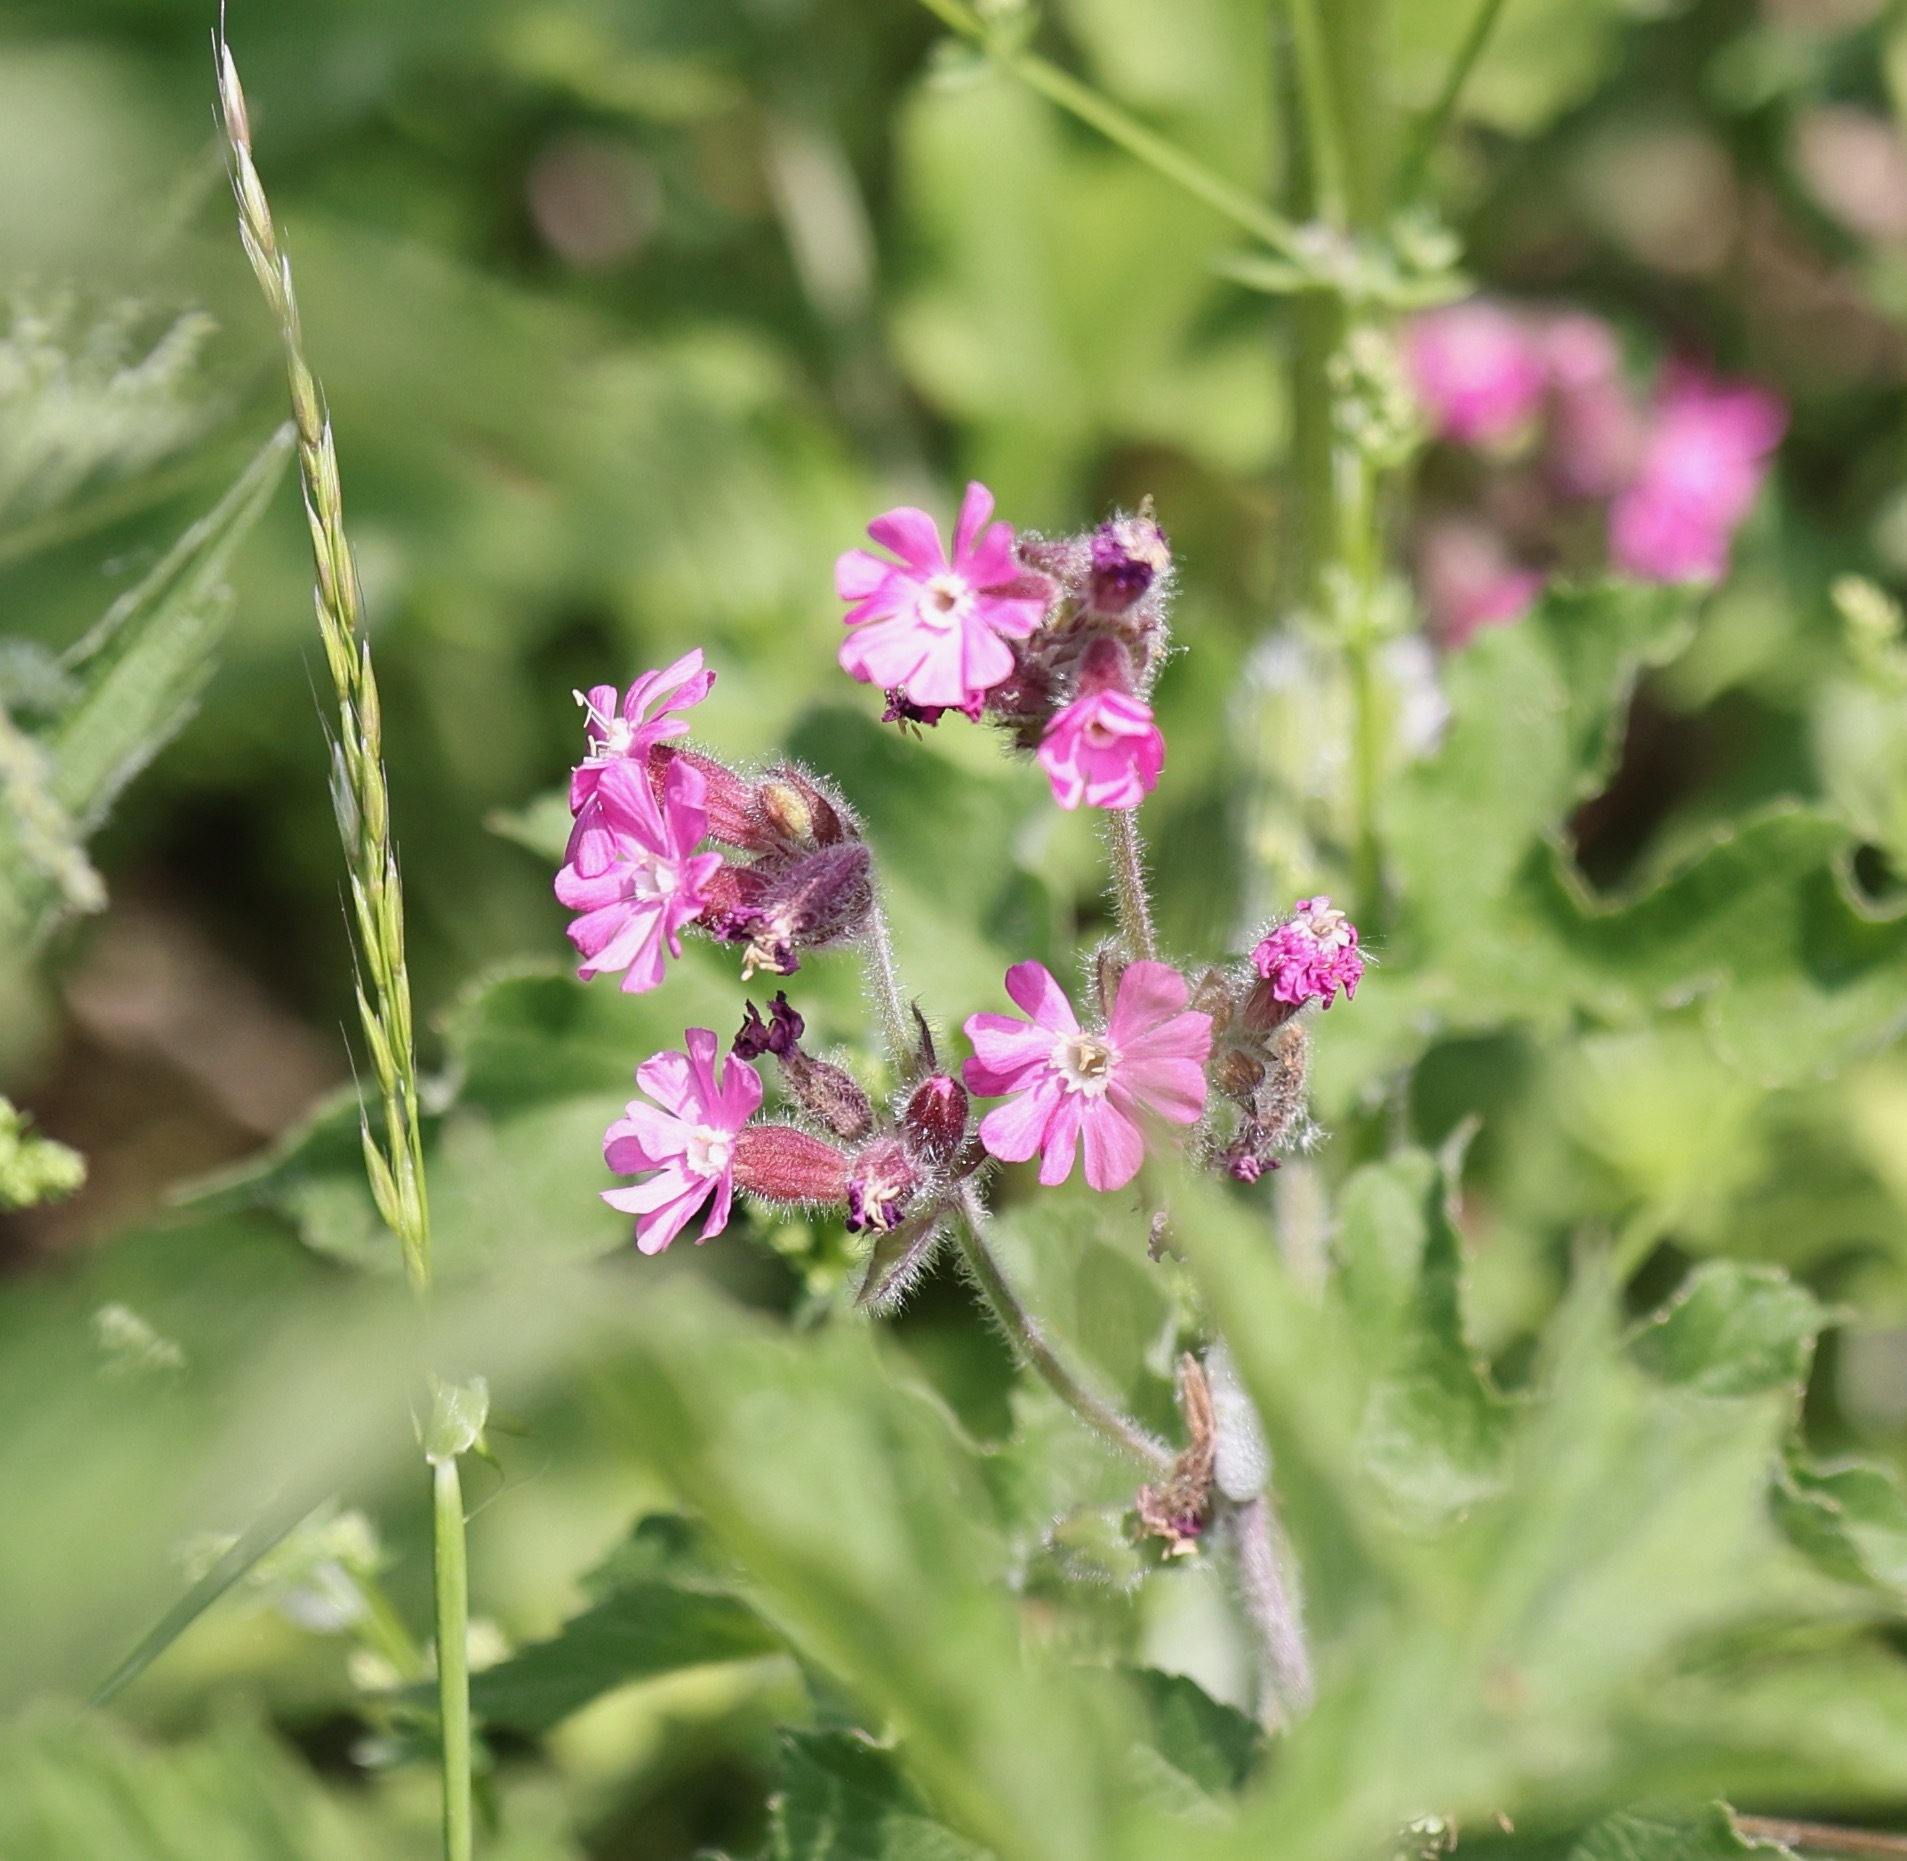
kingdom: Plantae
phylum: Tracheophyta
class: Magnoliopsida
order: Caryophyllales
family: Caryophyllaceae
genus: Silene
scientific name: Silene dioica
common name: Red campion
